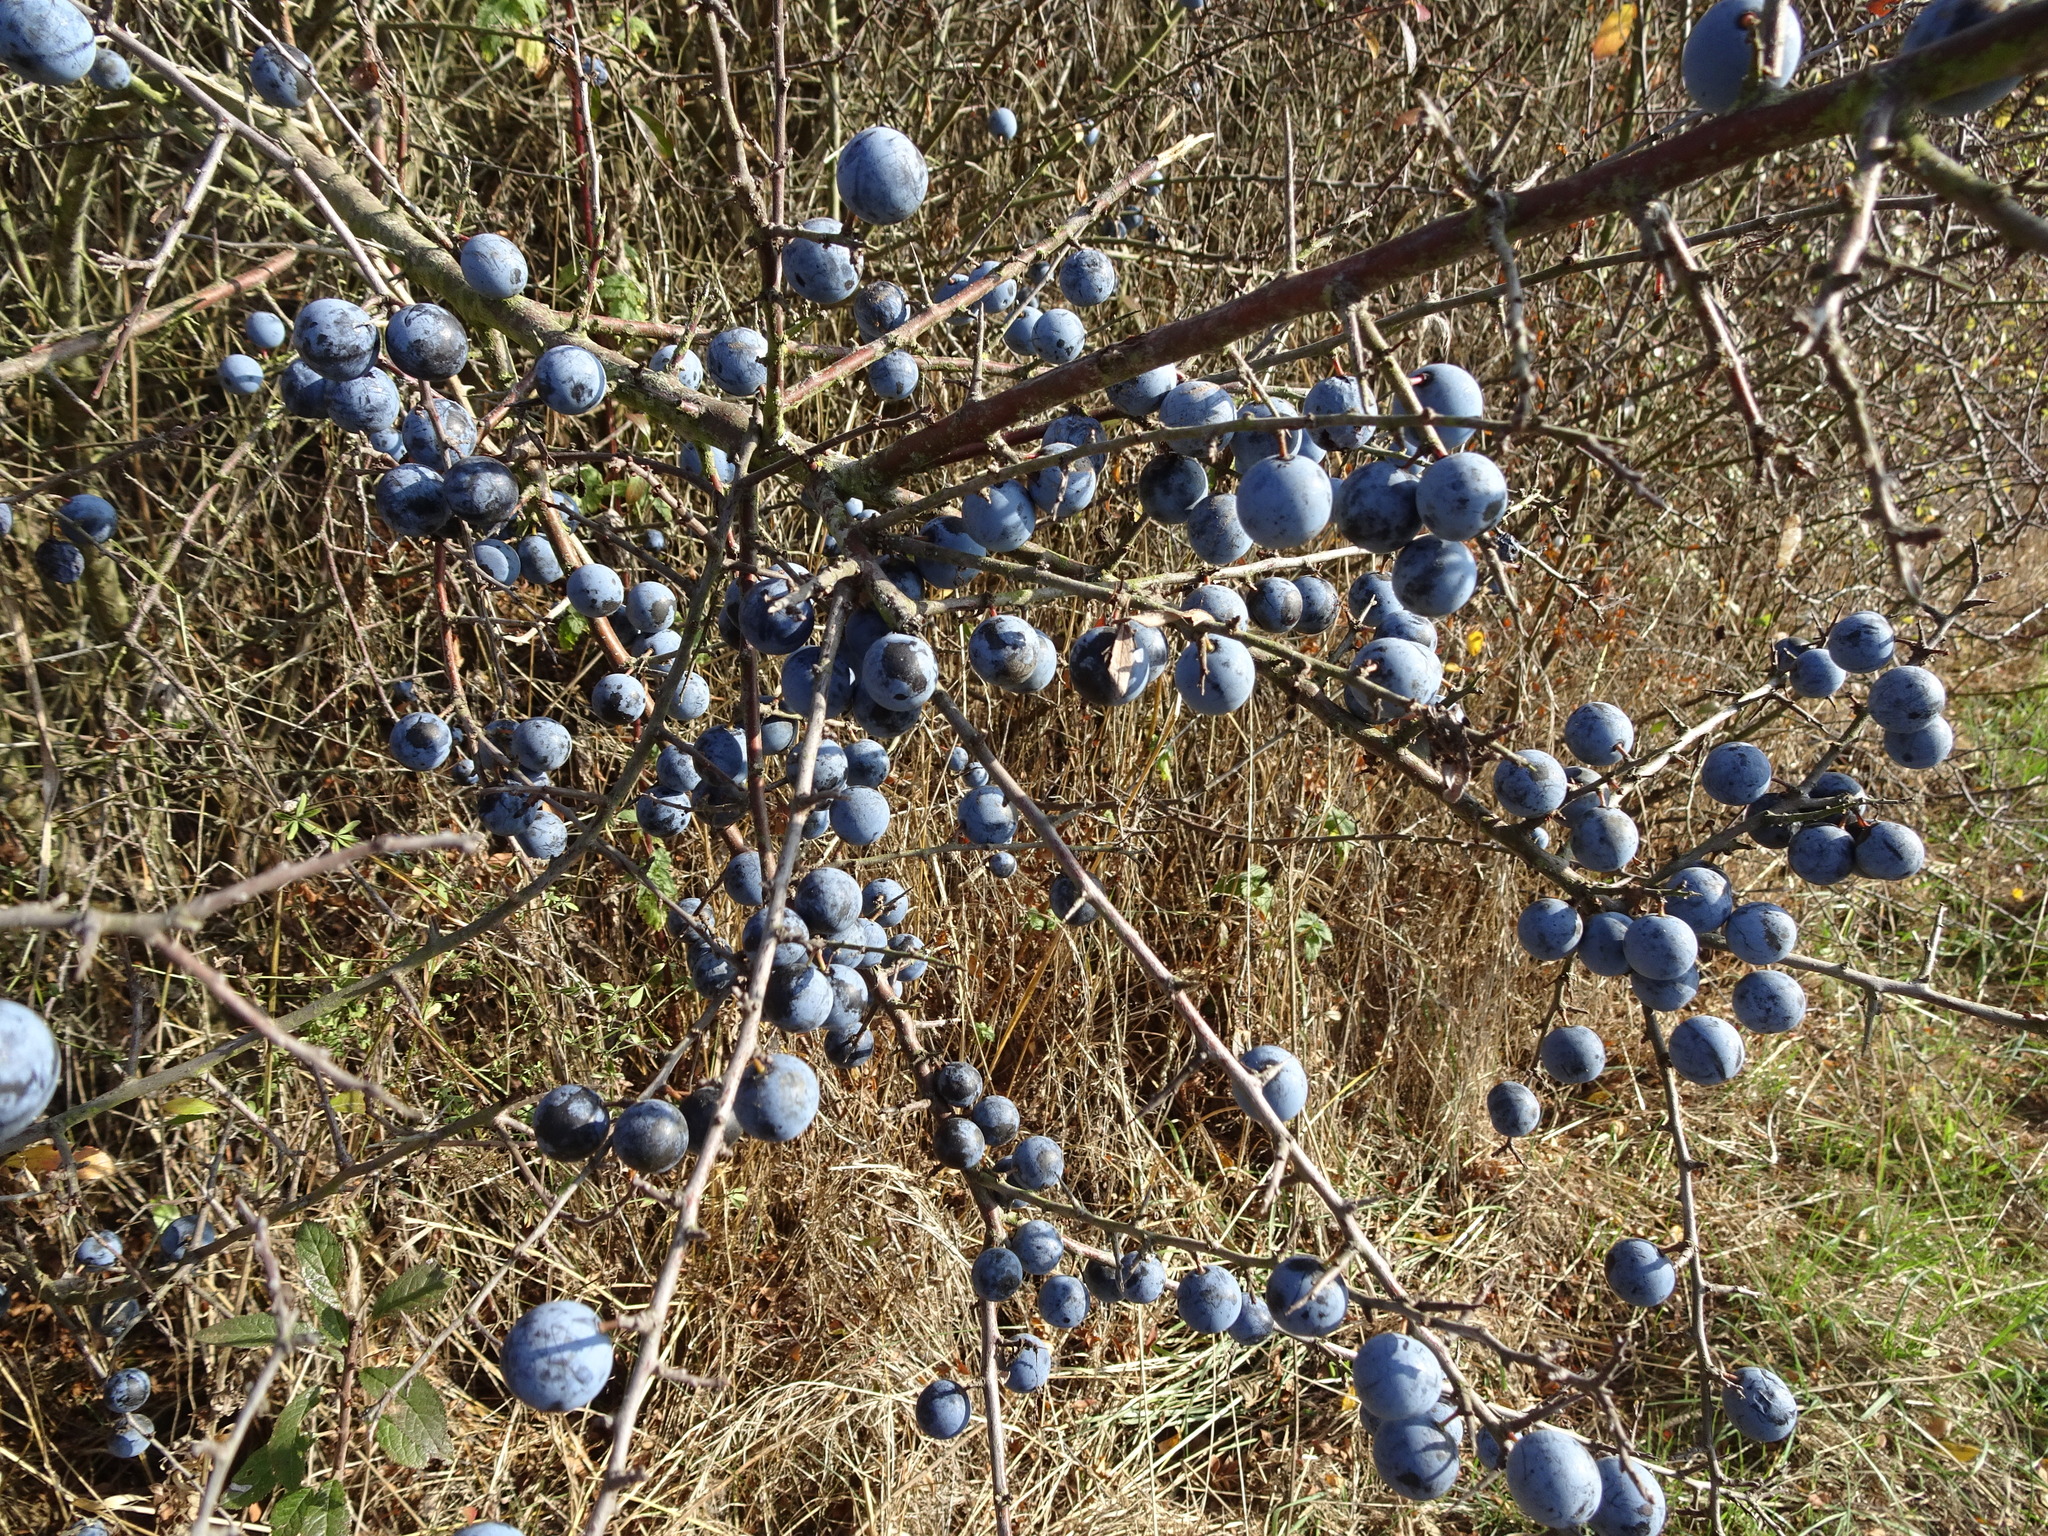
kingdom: Plantae
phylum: Tracheophyta
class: Magnoliopsida
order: Rosales
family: Rosaceae
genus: Prunus
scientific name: Prunus spinosa
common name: Blackthorn
